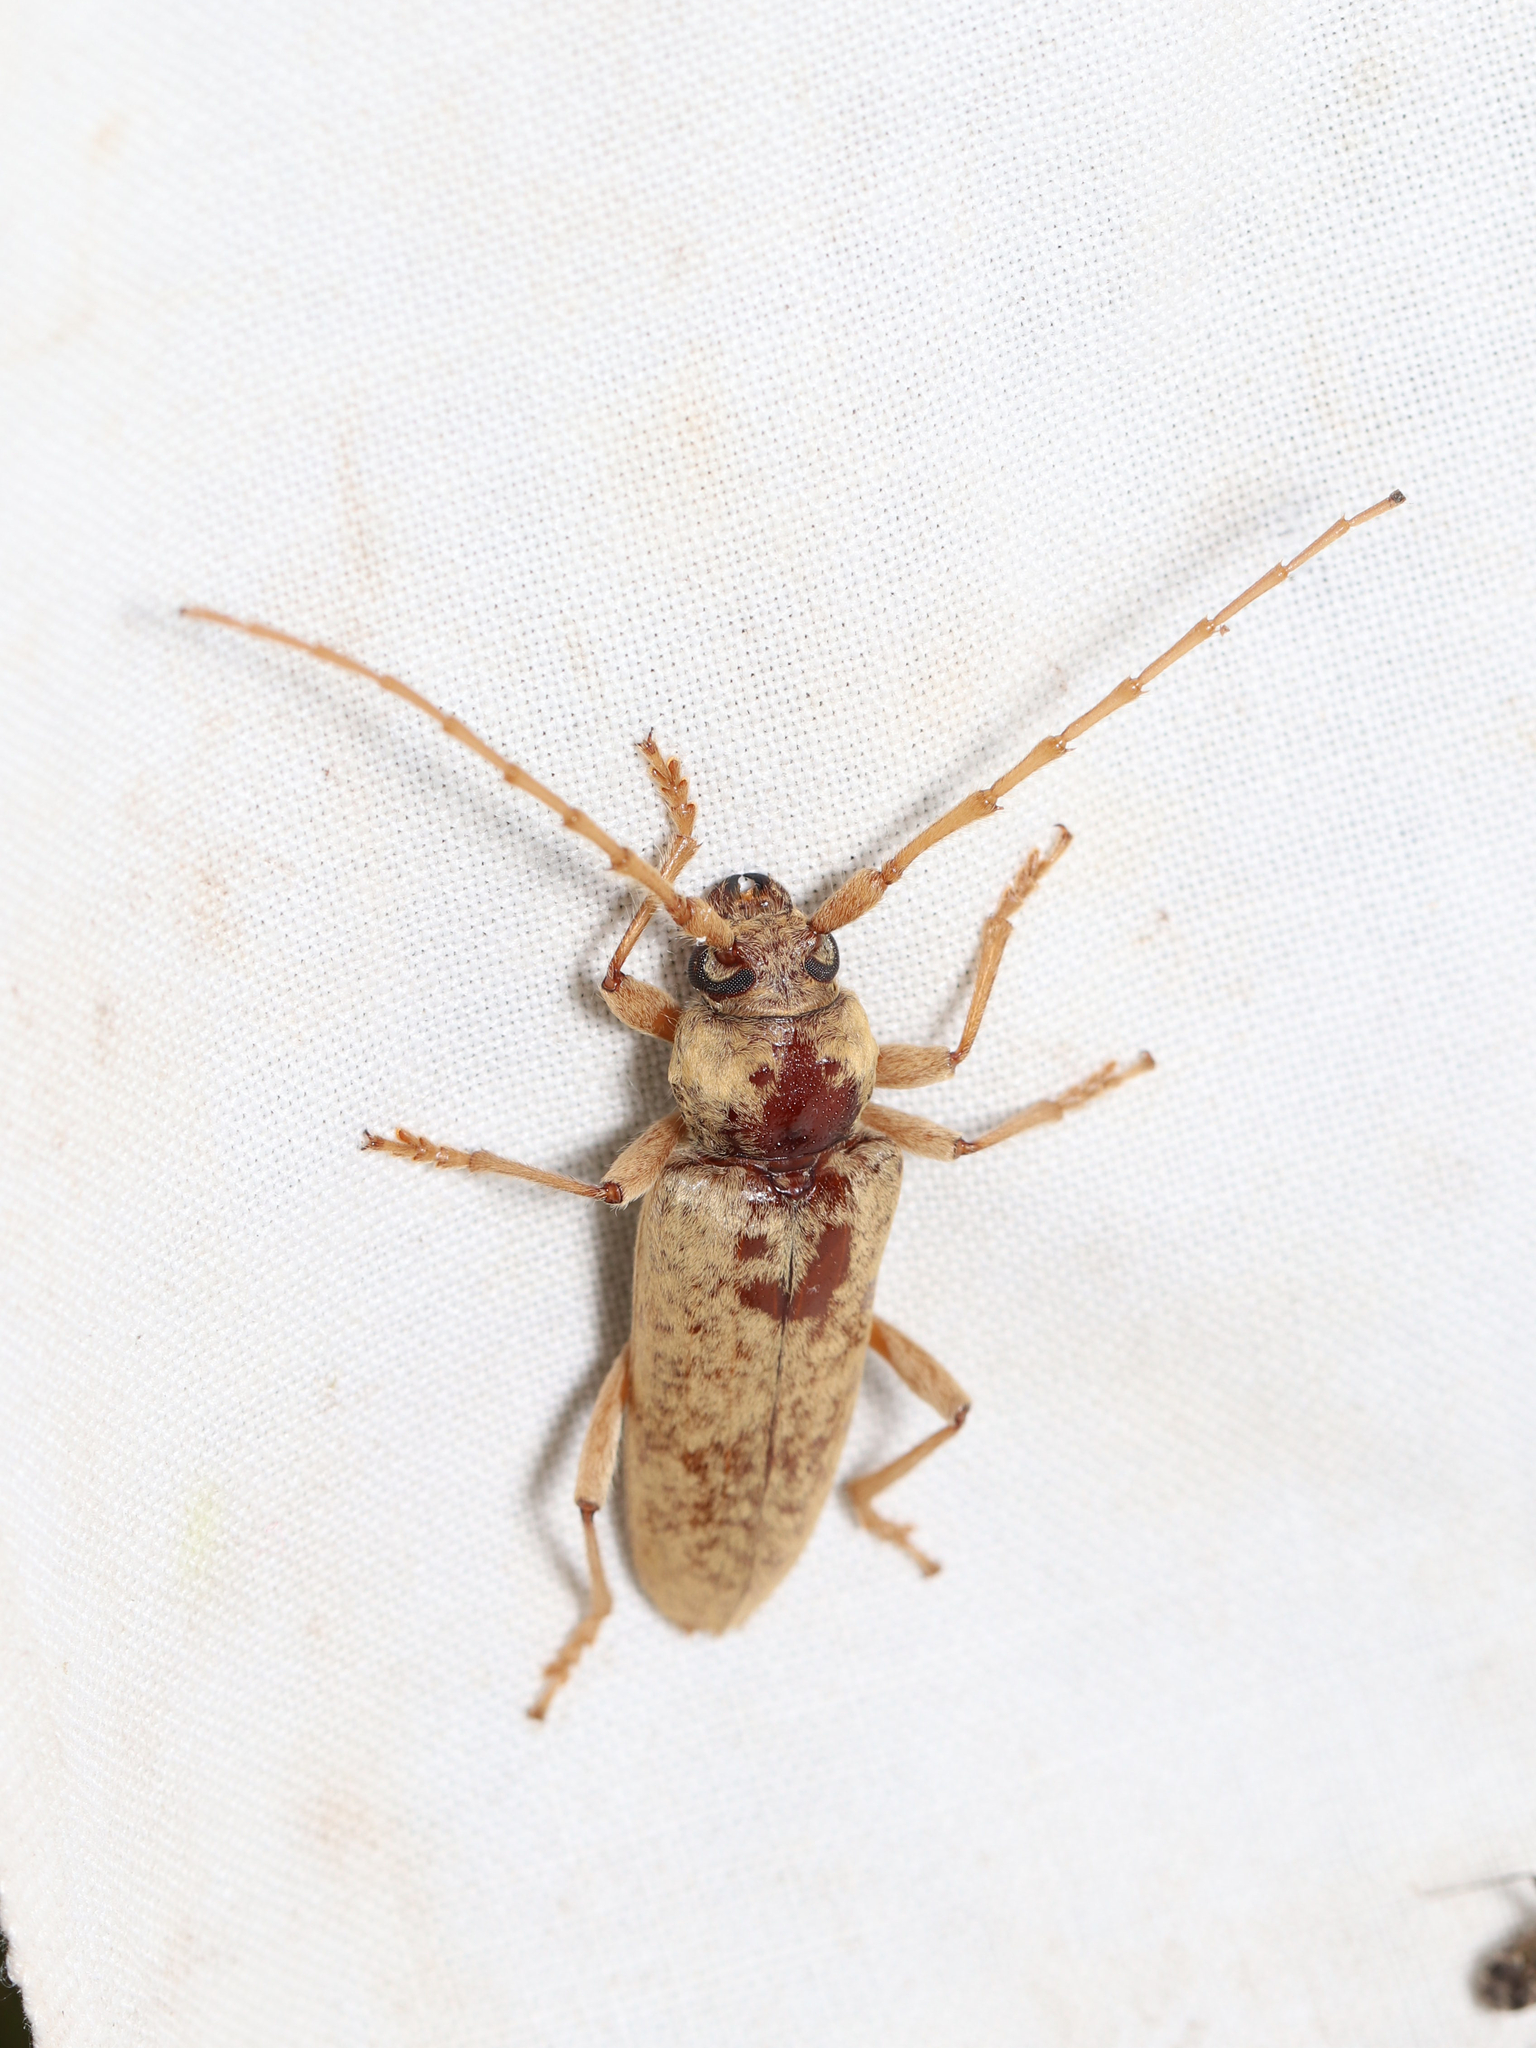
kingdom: Animalia
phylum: Arthropoda
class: Insecta
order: Coleoptera
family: Cerambycidae
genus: Enaphalodes
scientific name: Enaphalodes rufulus
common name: Red oak borer
